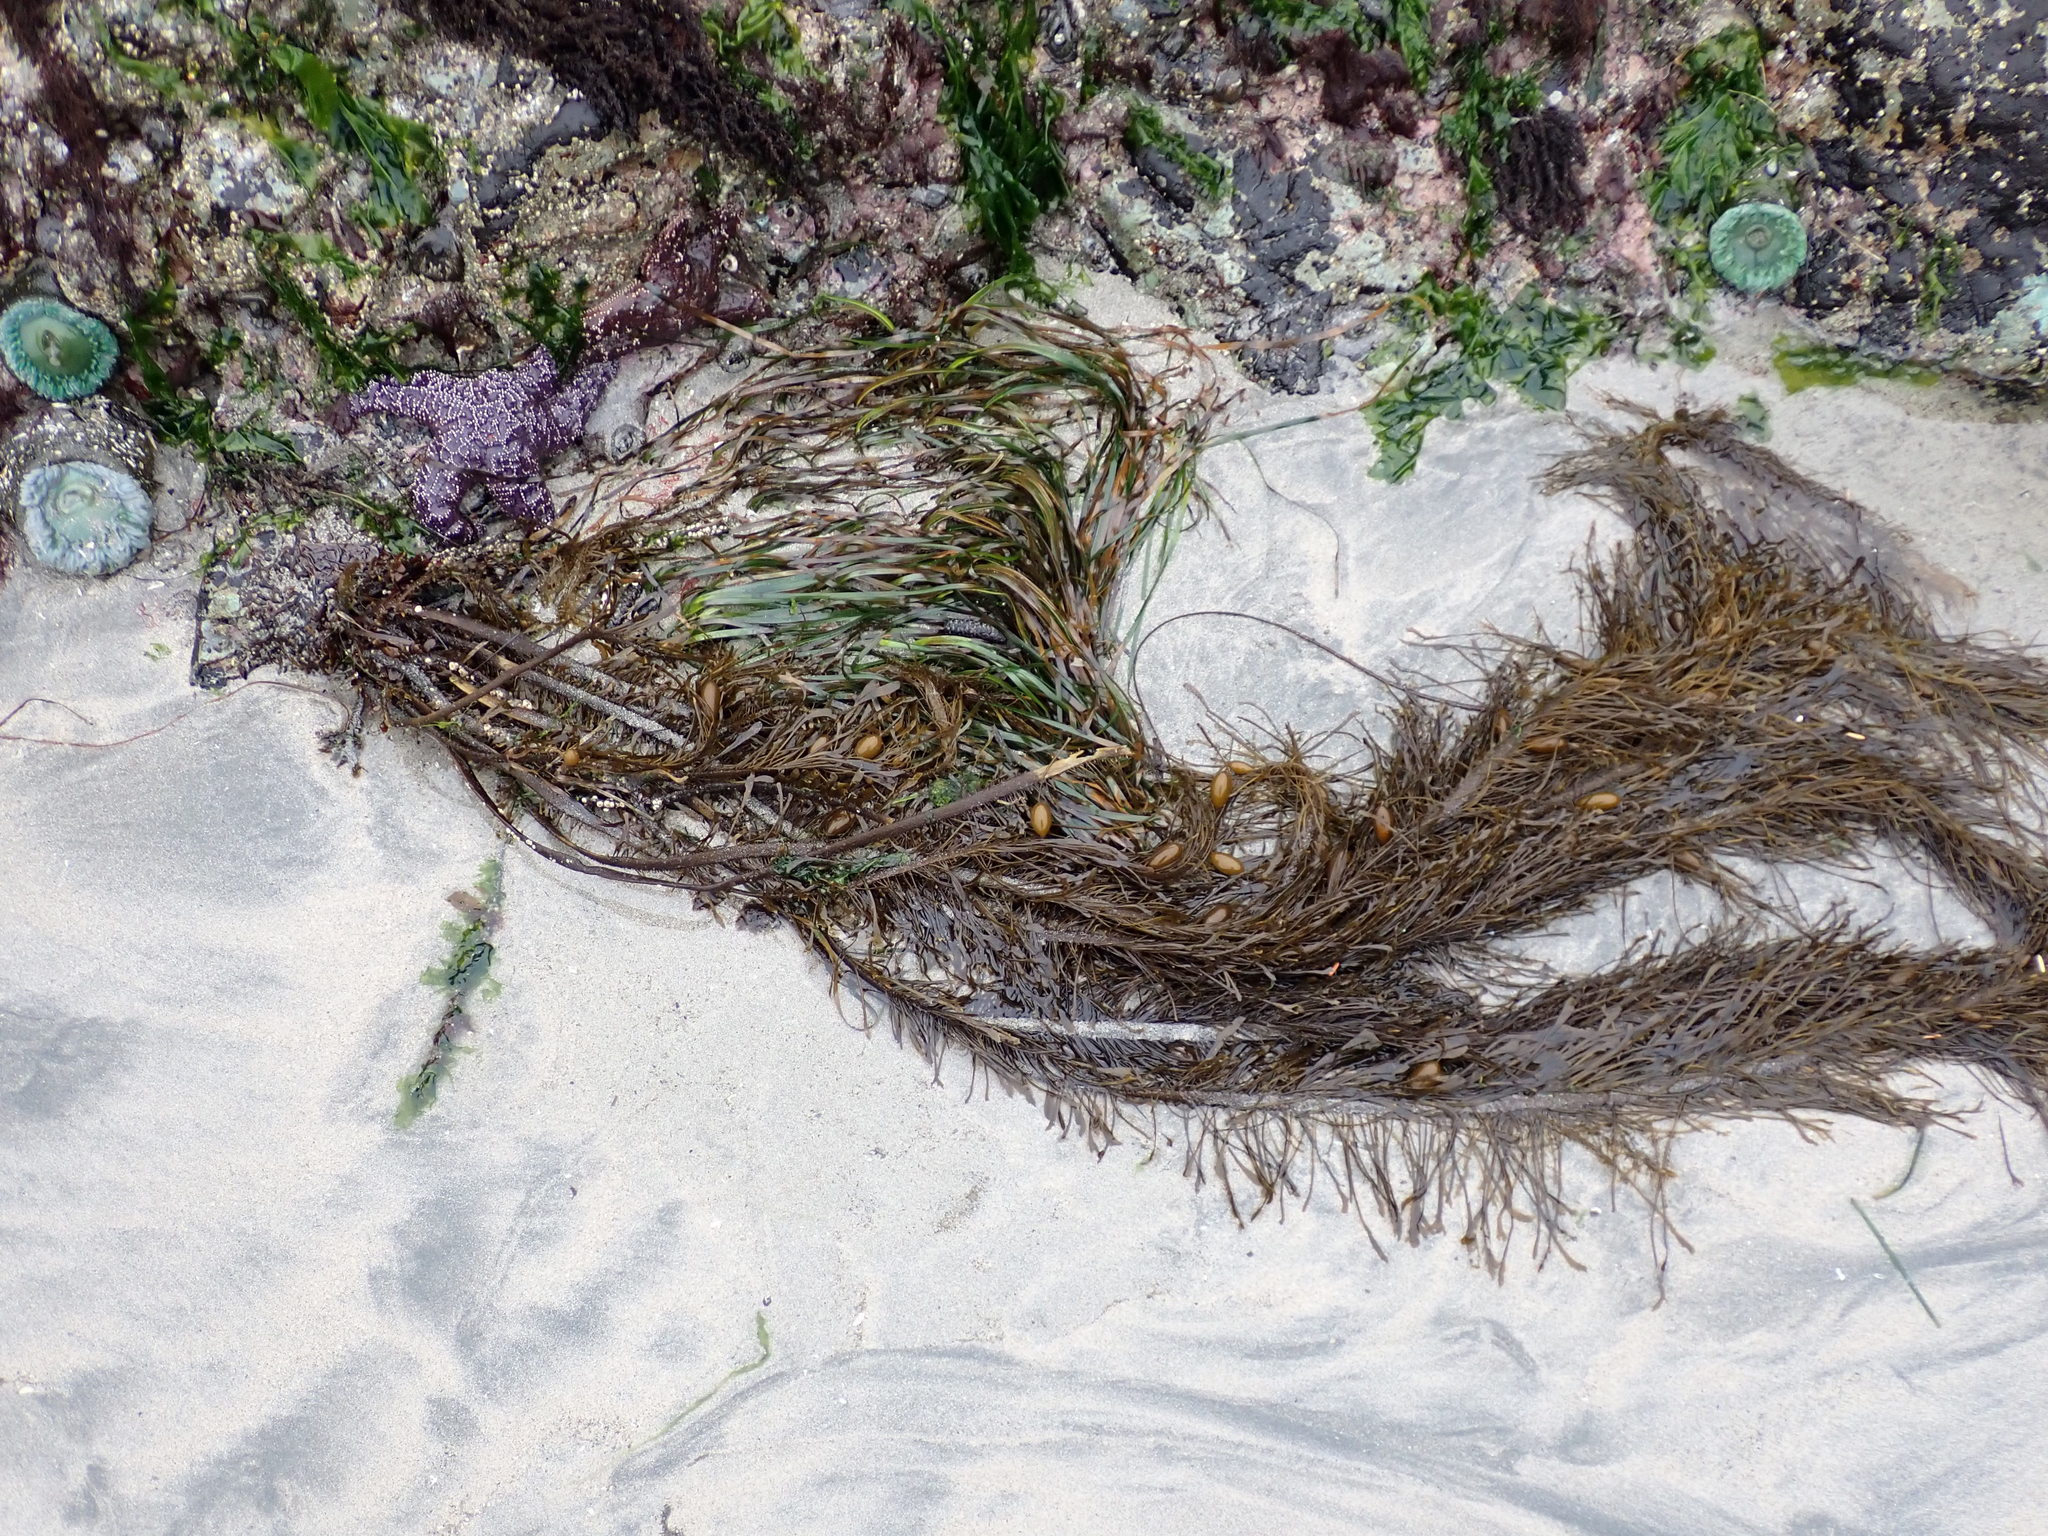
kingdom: Chromista
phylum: Ochrophyta
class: Phaeophyceae
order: Laminariales
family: Lessoniaceae
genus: Egregia
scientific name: Egregia menziesii
